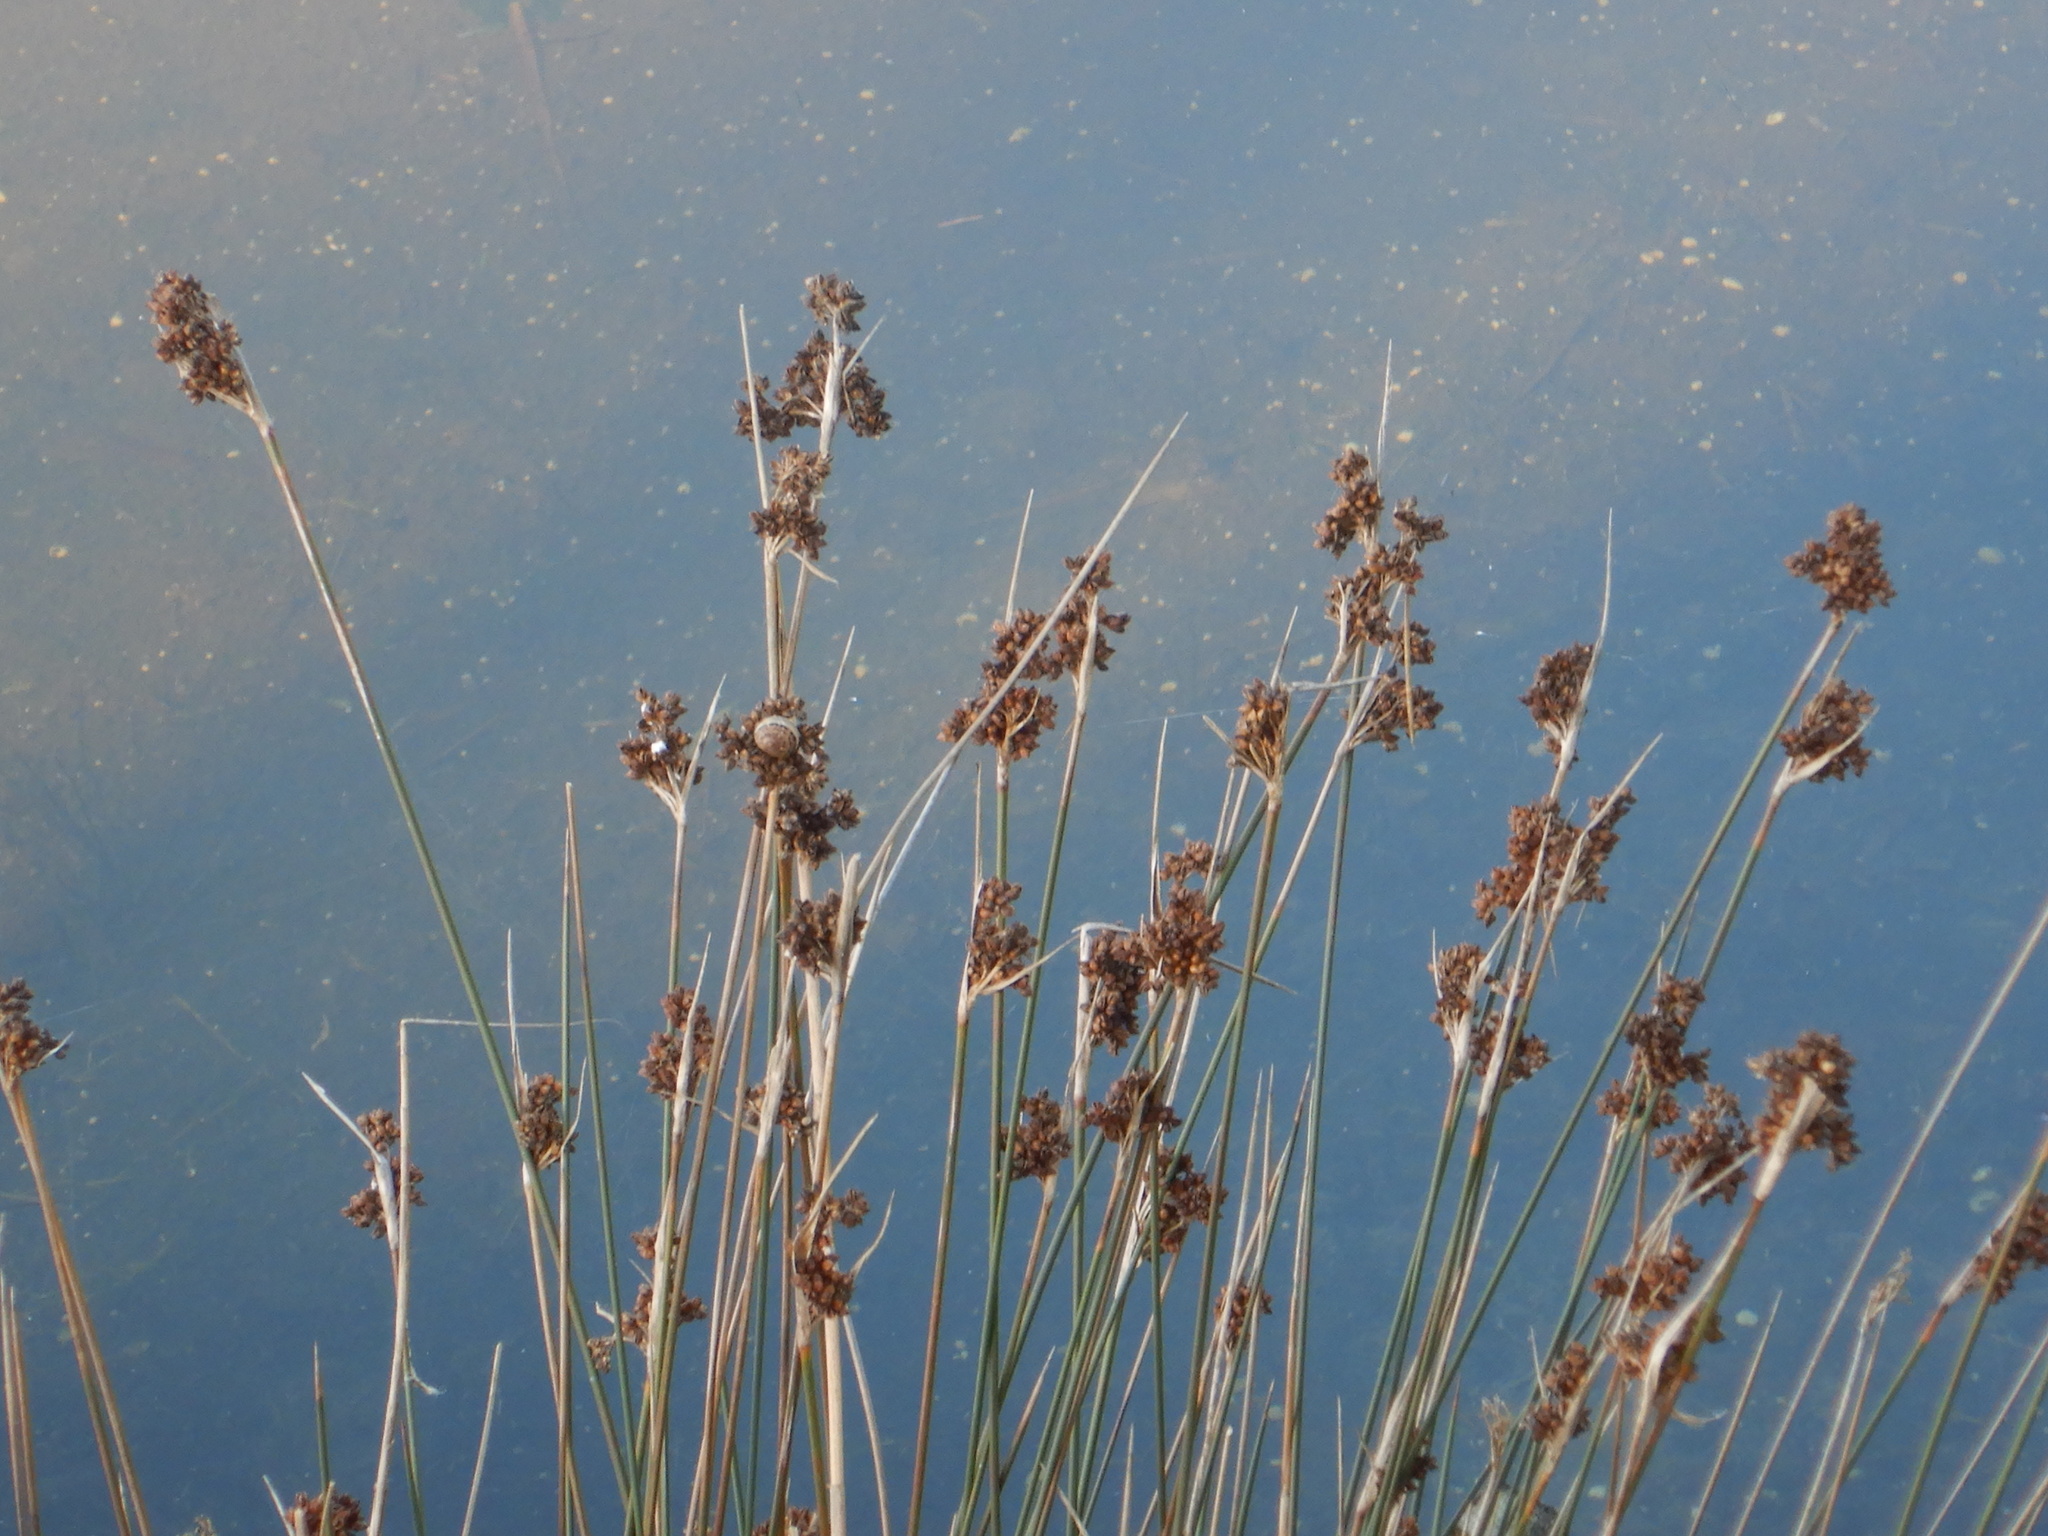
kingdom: Plantae
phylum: Tracheophyta
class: Liliopsida
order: Poales
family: Juncaceae
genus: Juncus
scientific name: Juncus acutus
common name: Sharp rush
